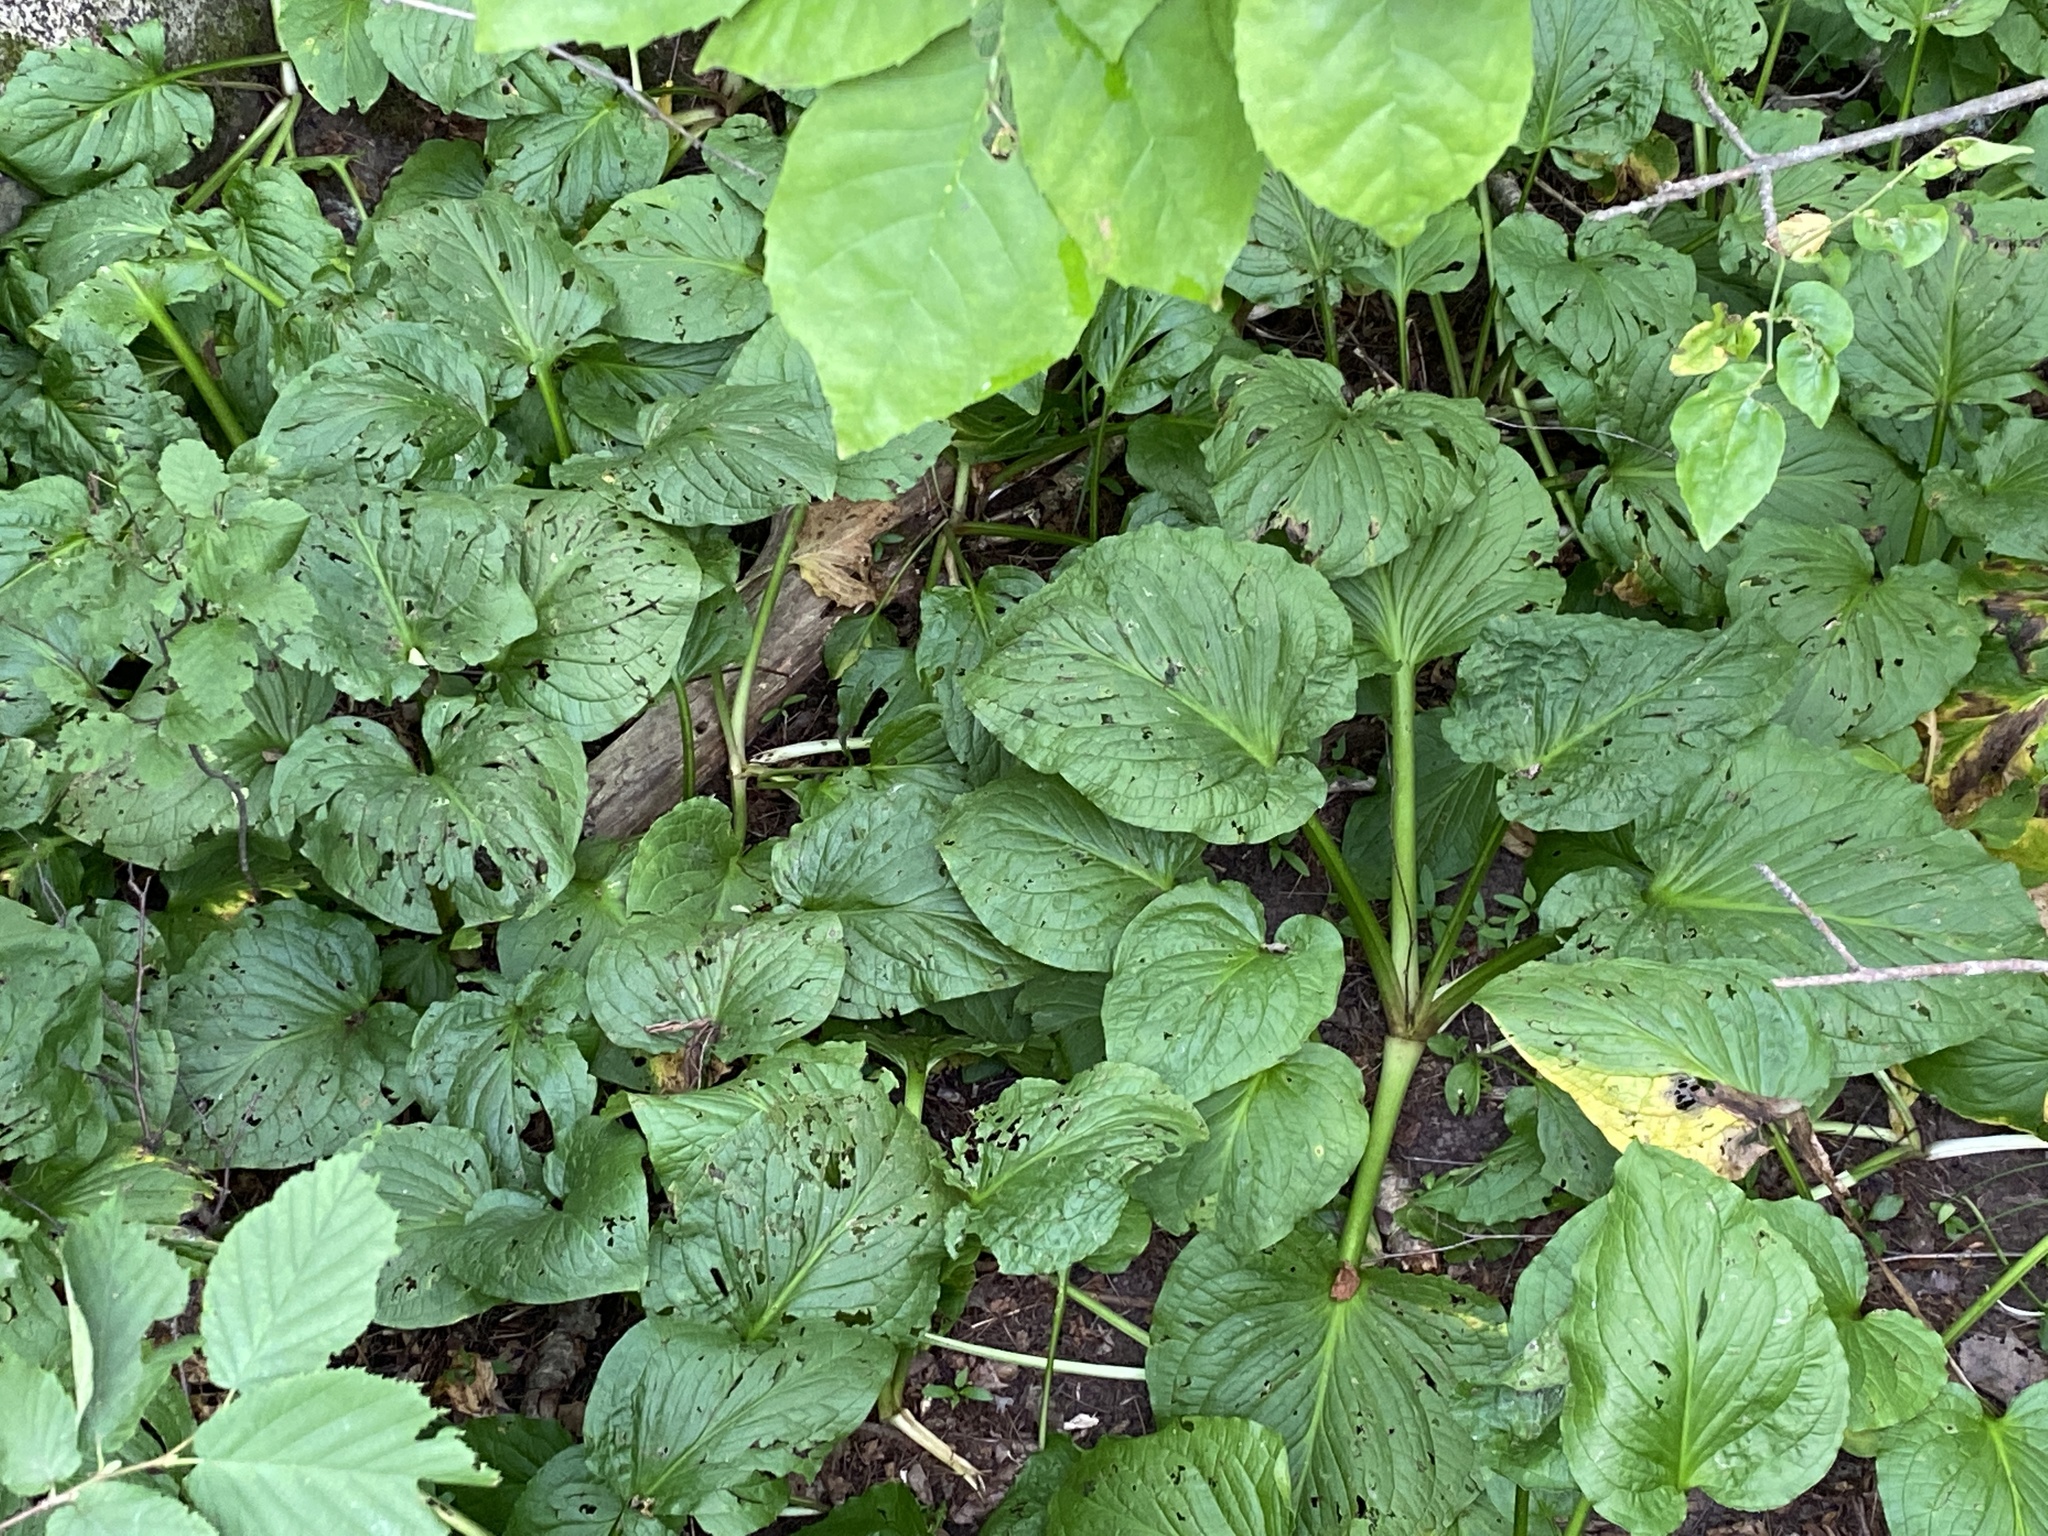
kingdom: Plantae
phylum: Tracheophyta
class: Liliopsida
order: Alismatales
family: Araceae
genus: Symplocarpus
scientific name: Symplocarpus foetidus
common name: Eastern skunk cabbage
